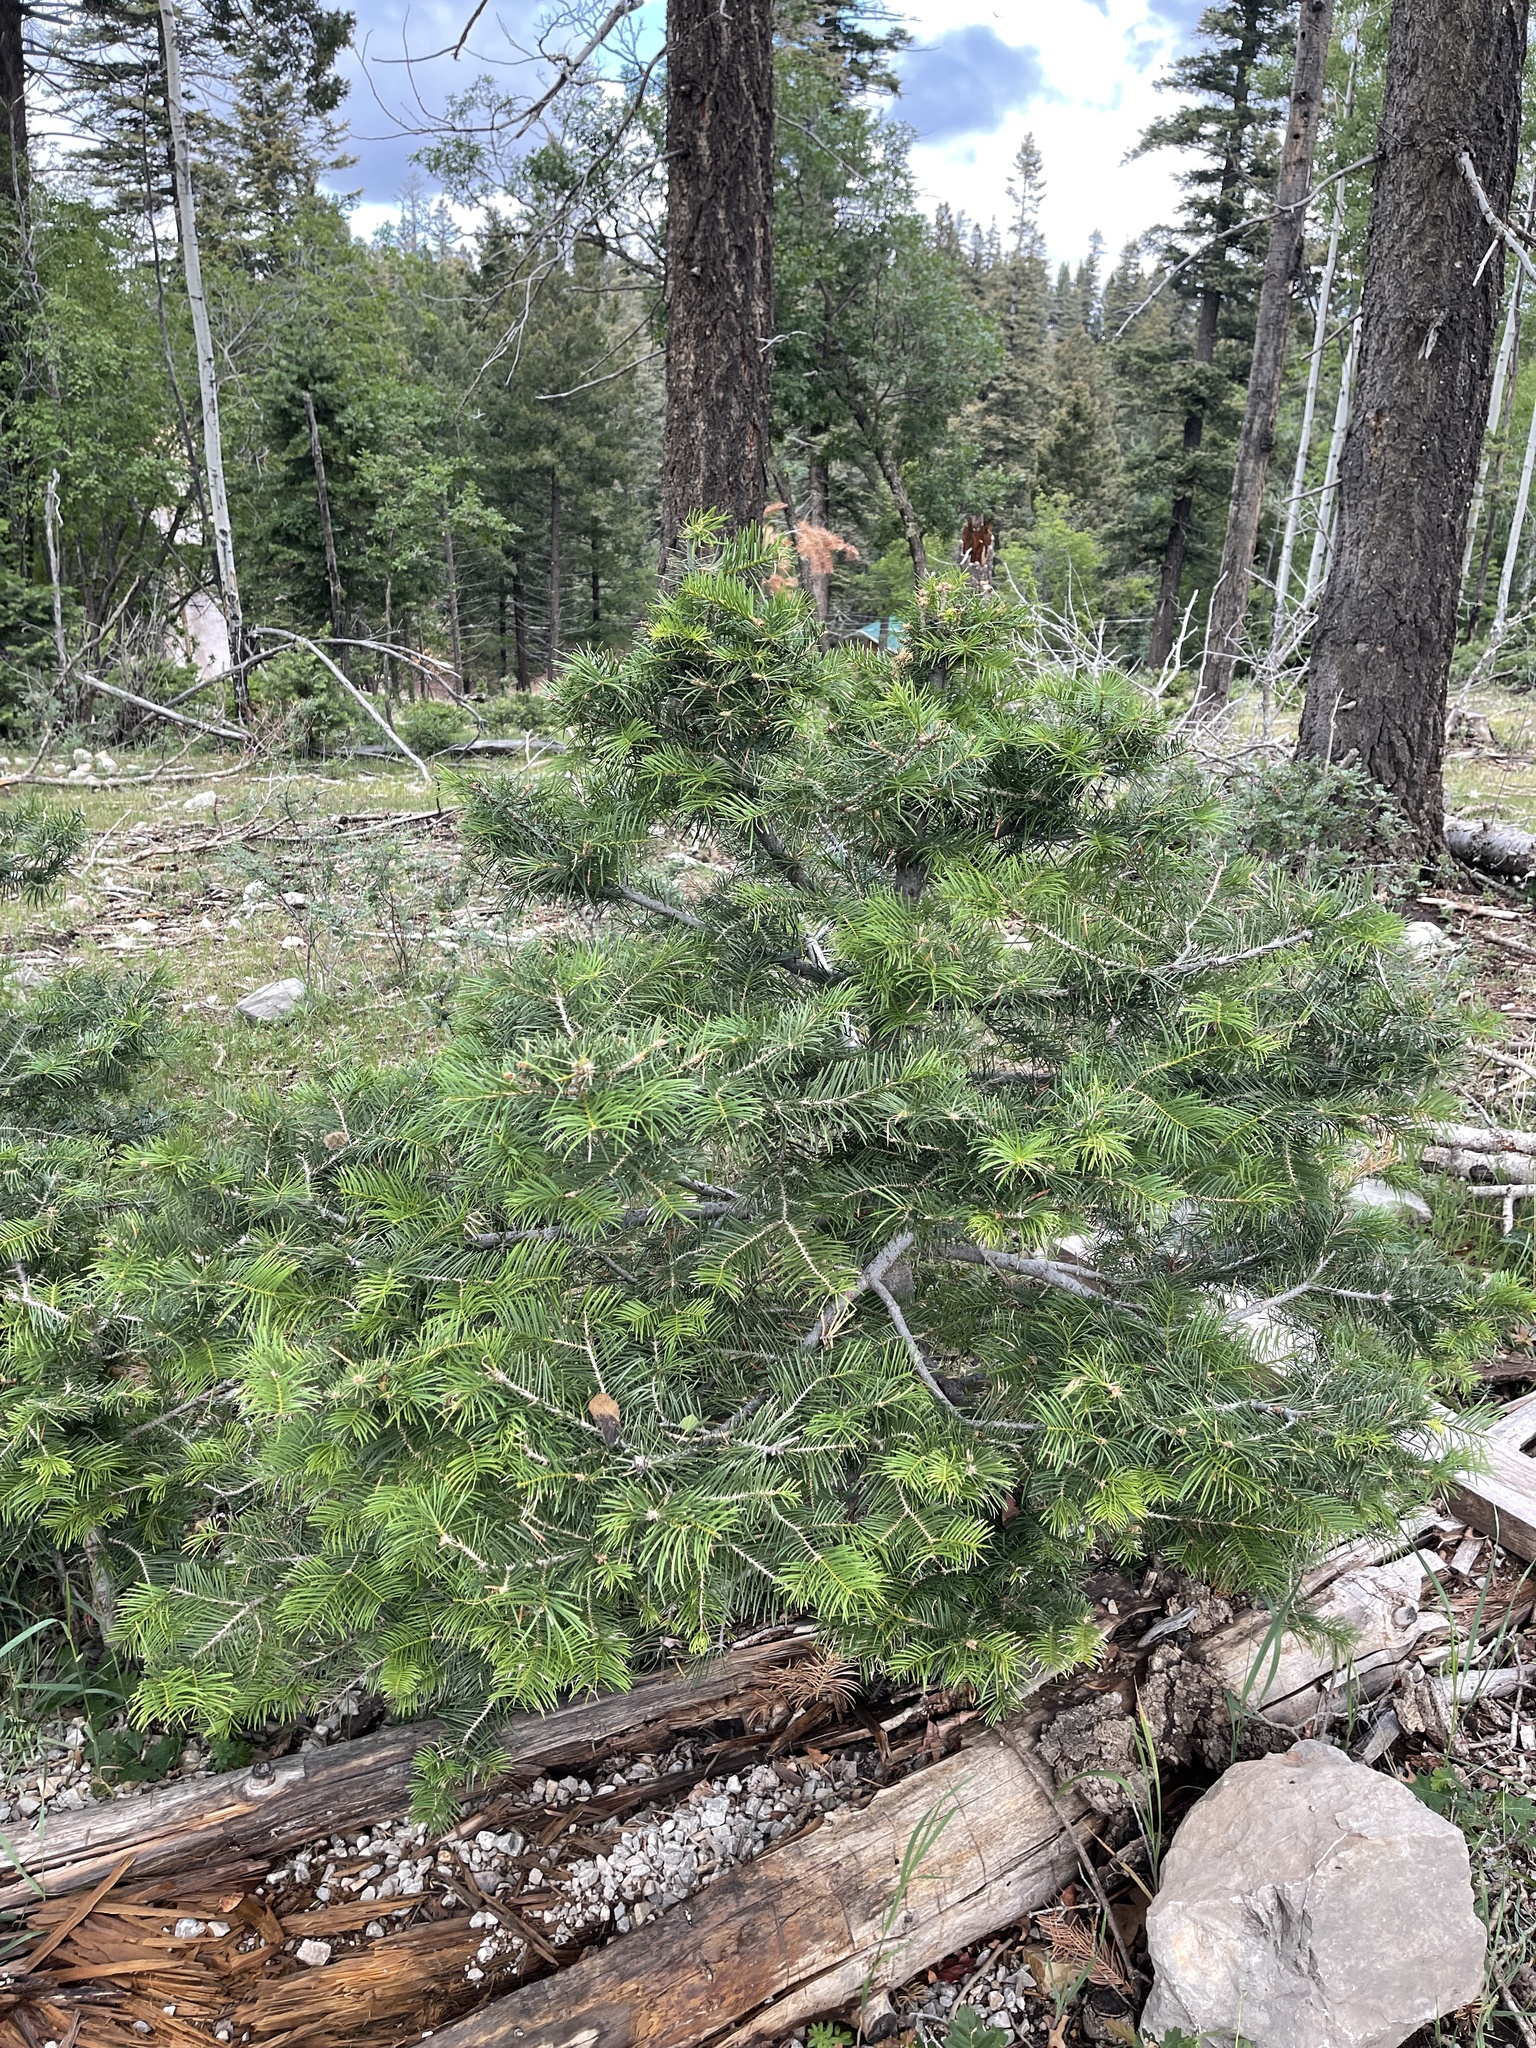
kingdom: Plantae
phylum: Tracheophyta
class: Pinopsida
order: Pinales
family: Pinaceae
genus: Abies
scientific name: Abies concolor
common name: Colorado fir
